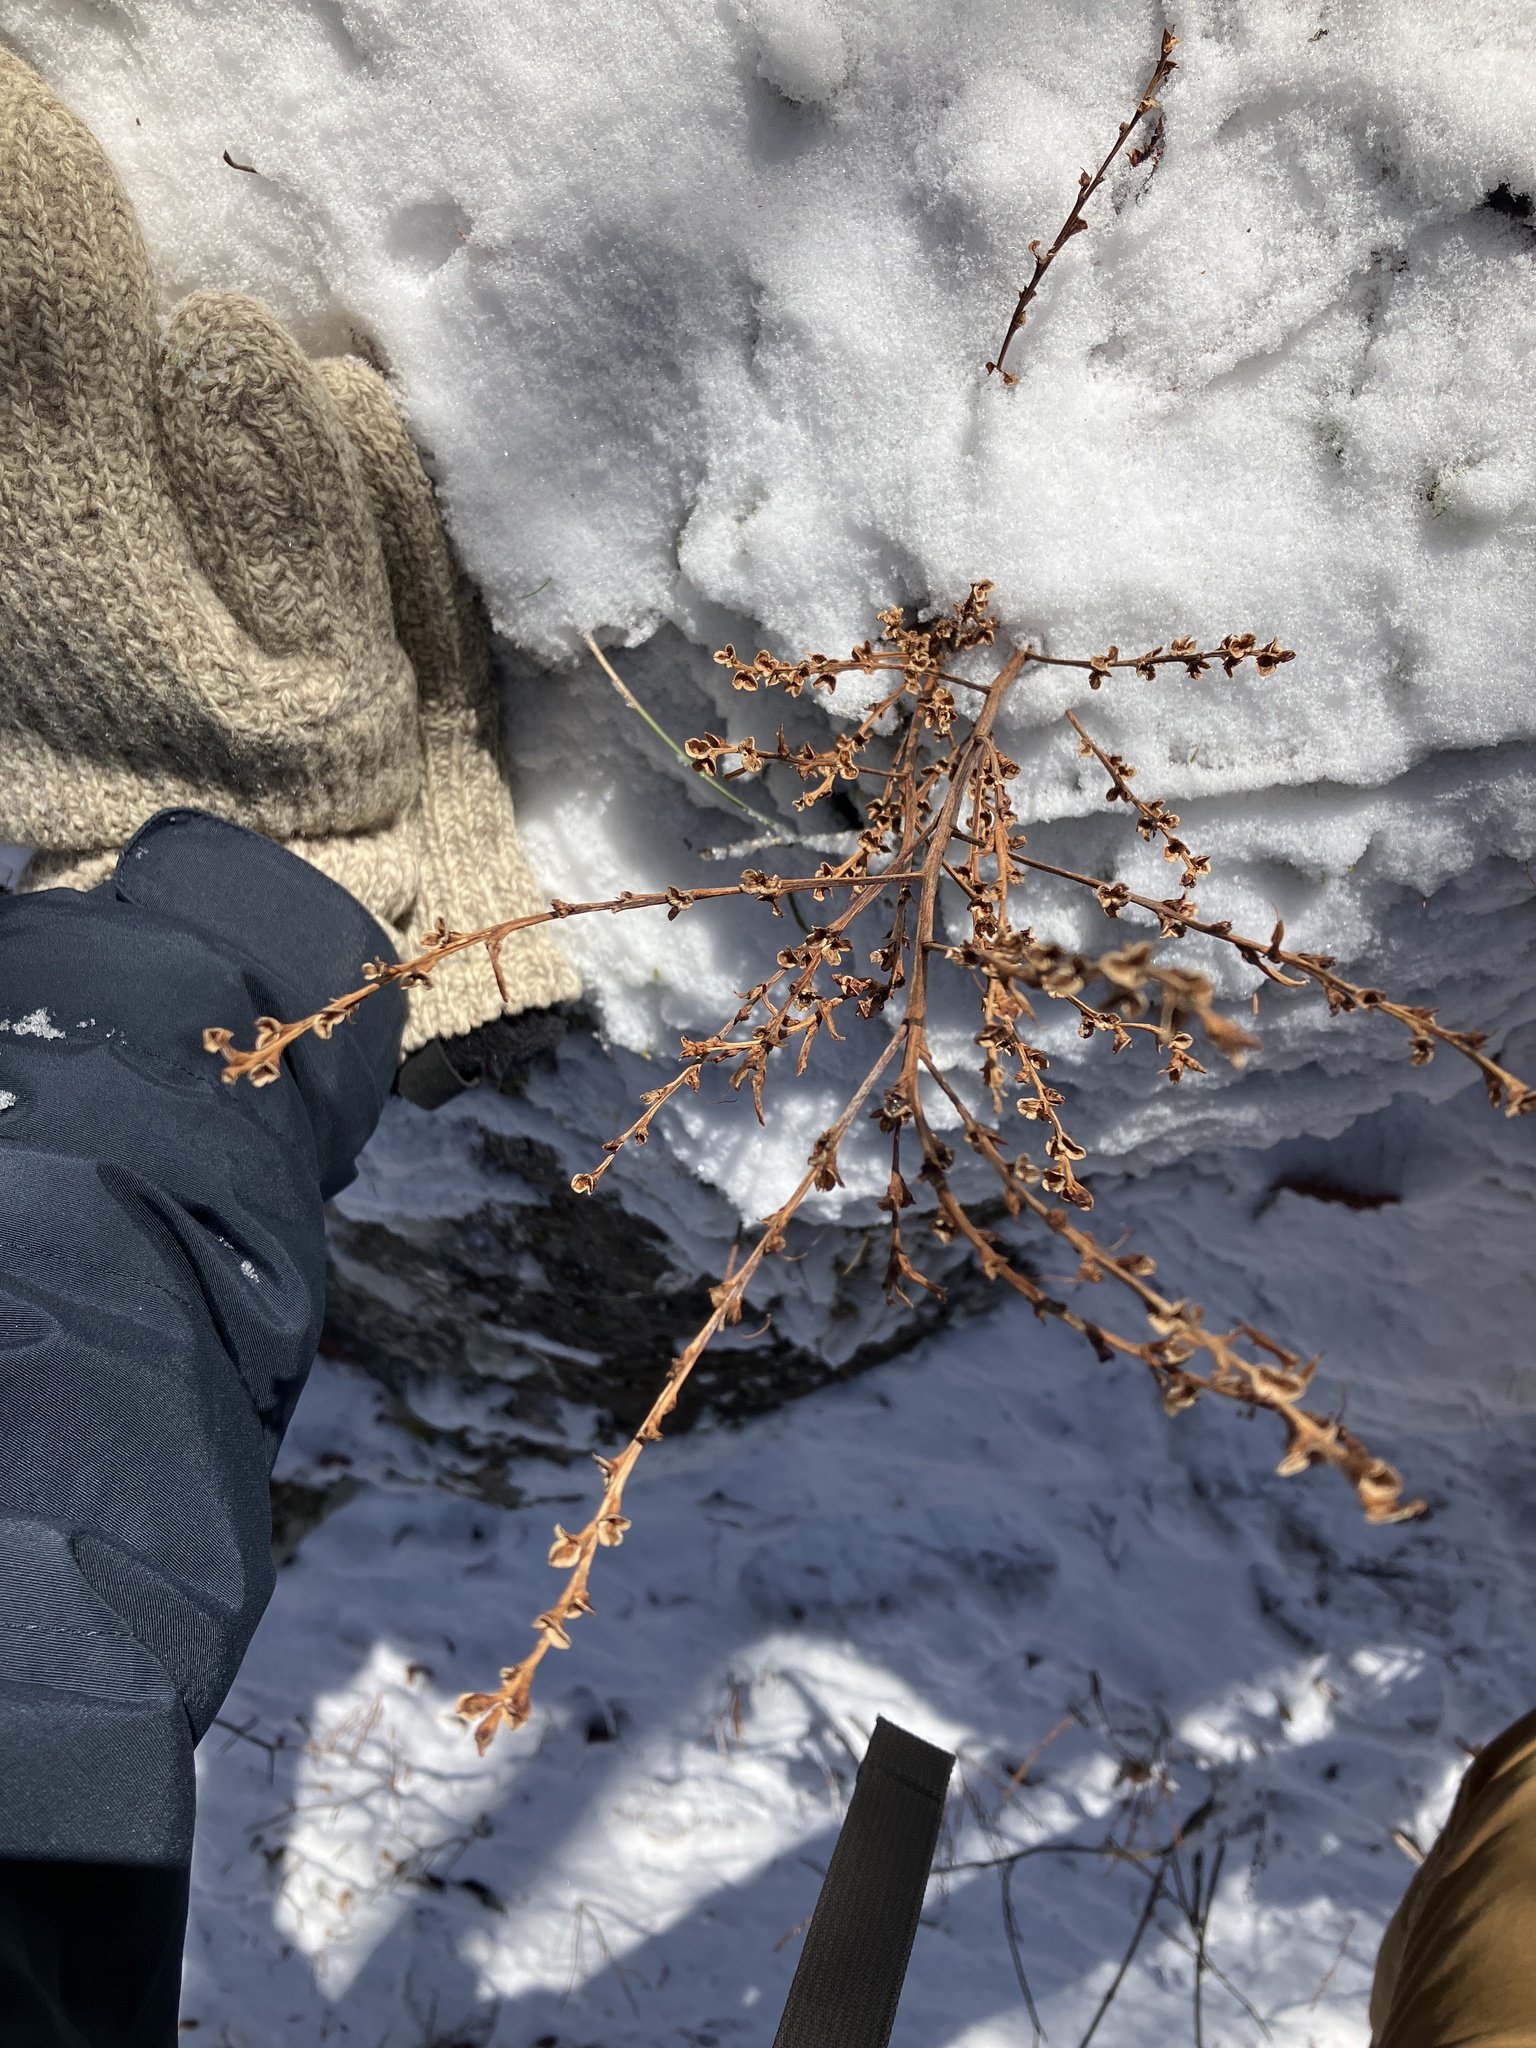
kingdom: Plantae
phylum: Tracheophyta
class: Magnoliopsida
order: Lamiales
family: Orobanchaceae
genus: Epifagus
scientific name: Epifagus virginiana
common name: Beechdrops
